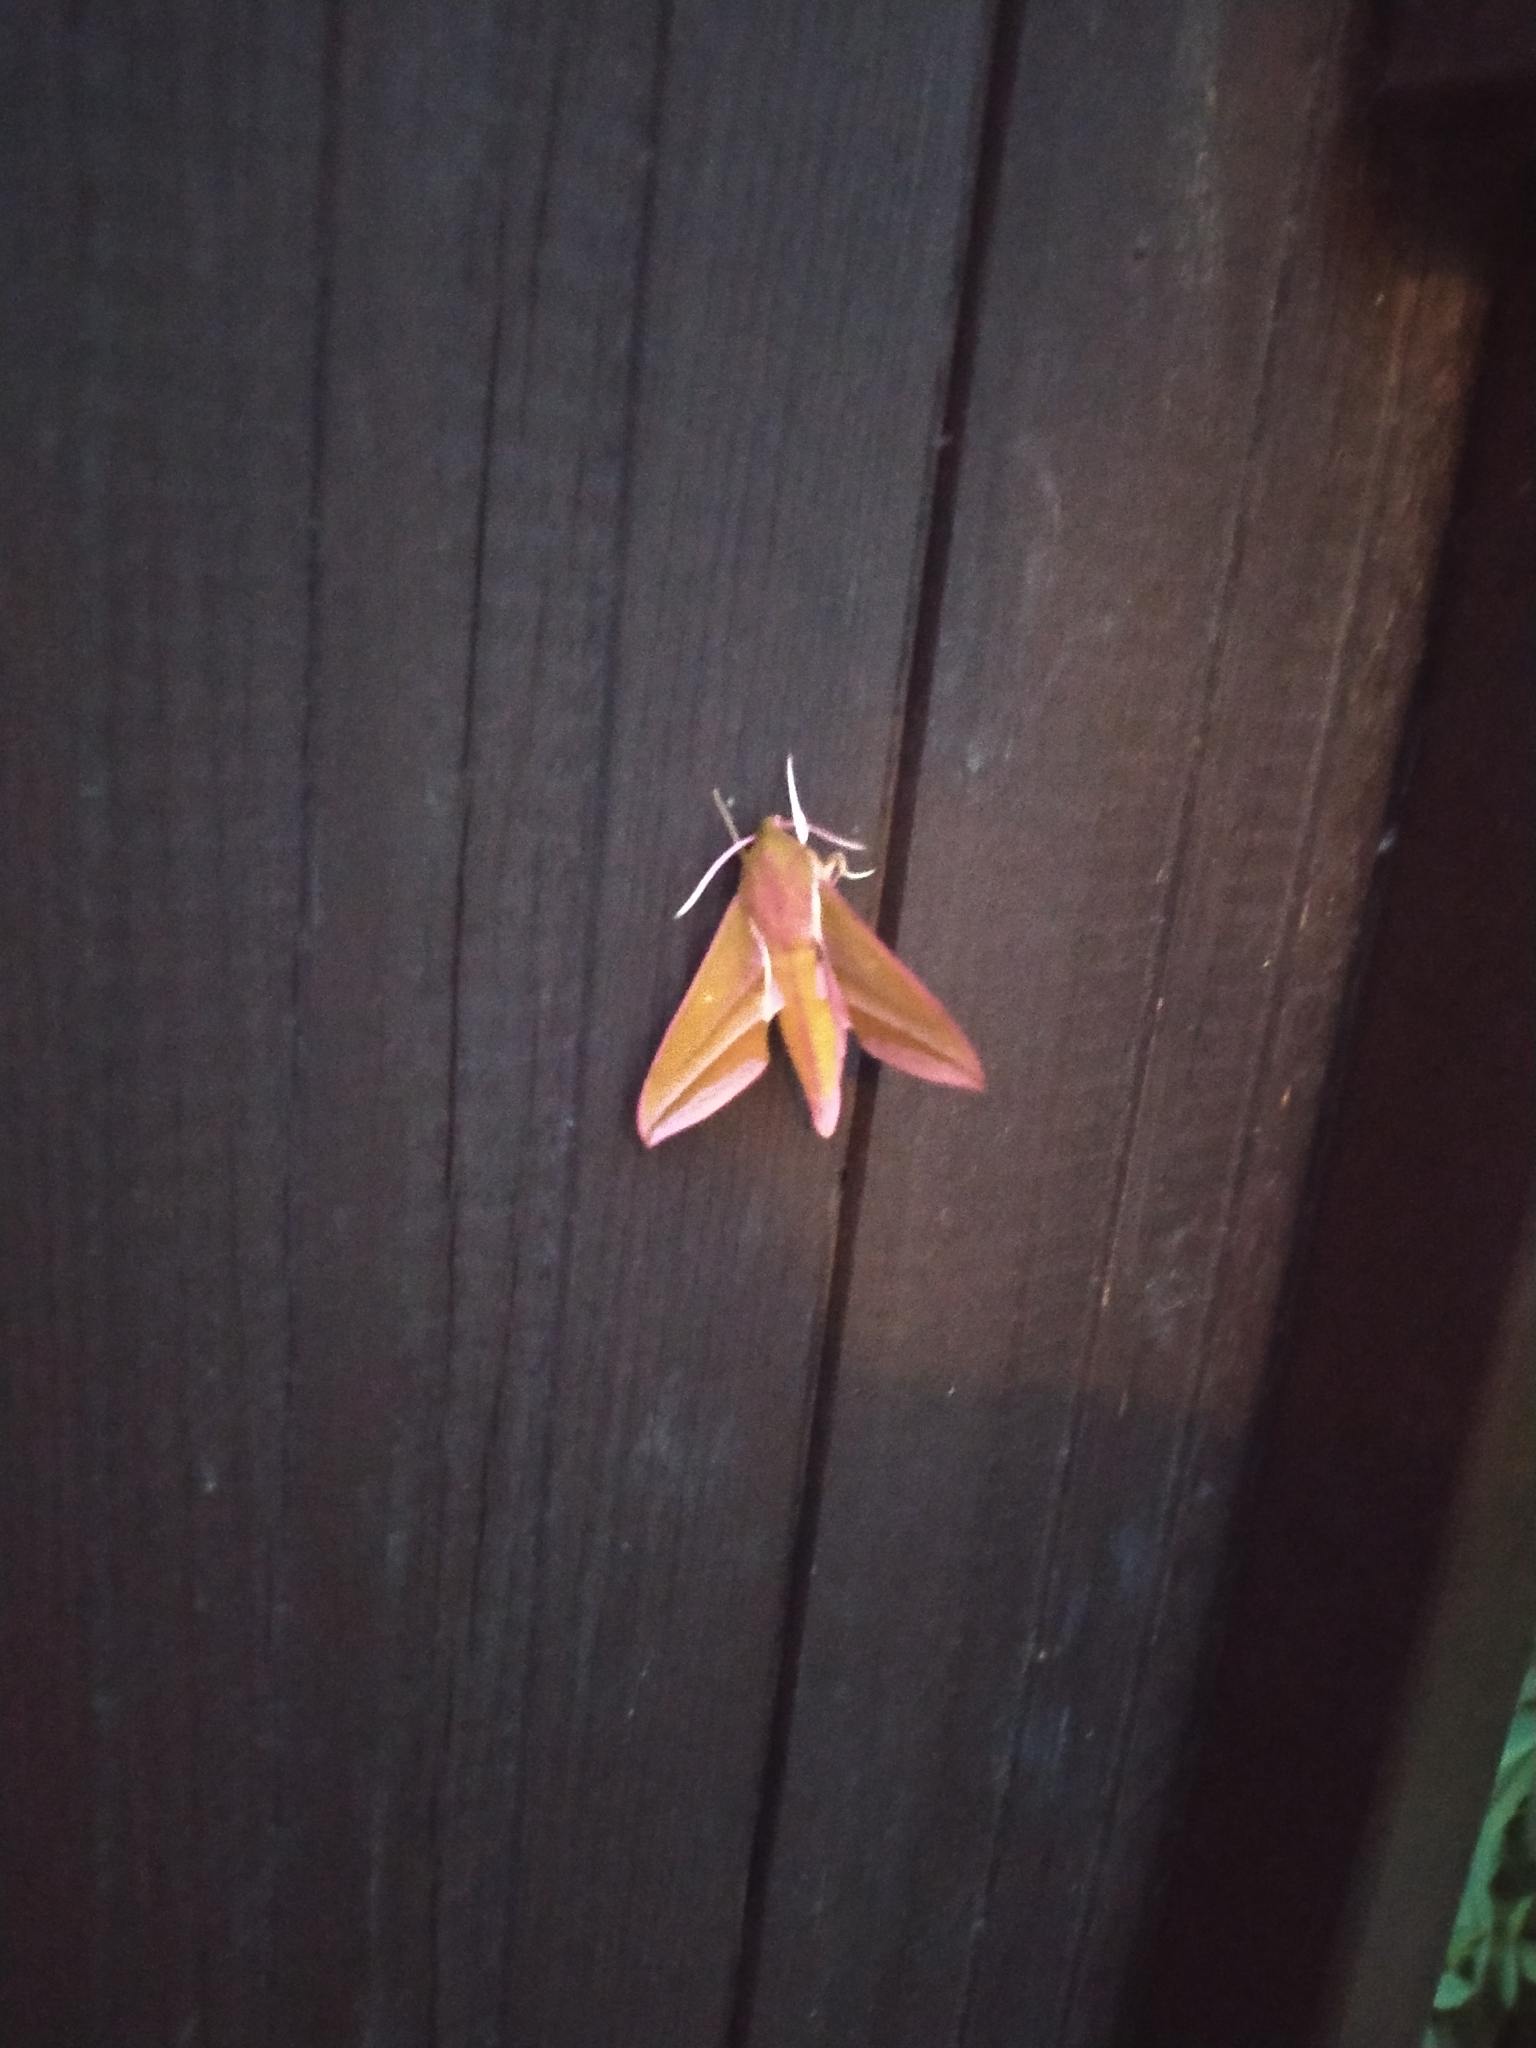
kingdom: Animalia
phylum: Arthropoda
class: Insecta
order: Lepidoptera
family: Sphingidae
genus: Deilephila
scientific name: Deilephila elpenor
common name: Elephant hawk-moth
